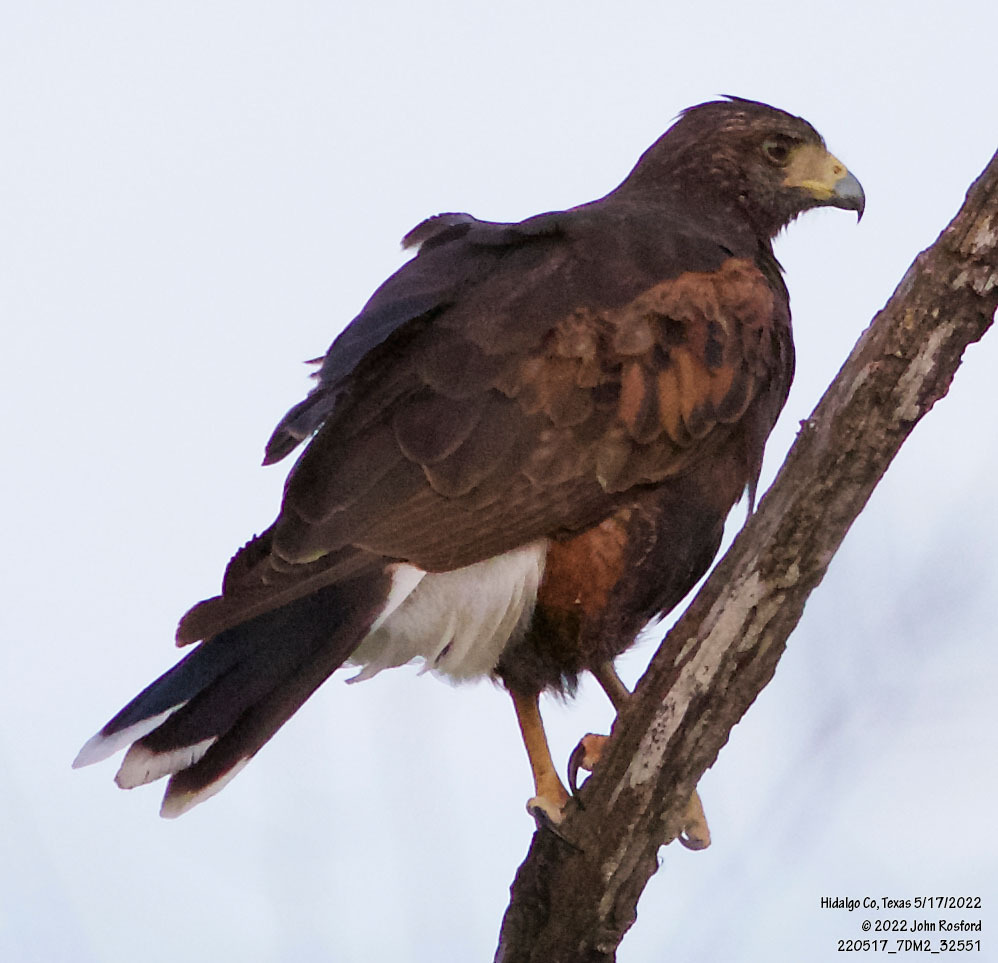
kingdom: Animalia
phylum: Chordata
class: Aves
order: Accipitriformes
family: Accipitridae
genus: Parabuteo
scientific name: Parabuteo unicinctus
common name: Harris's hawk
